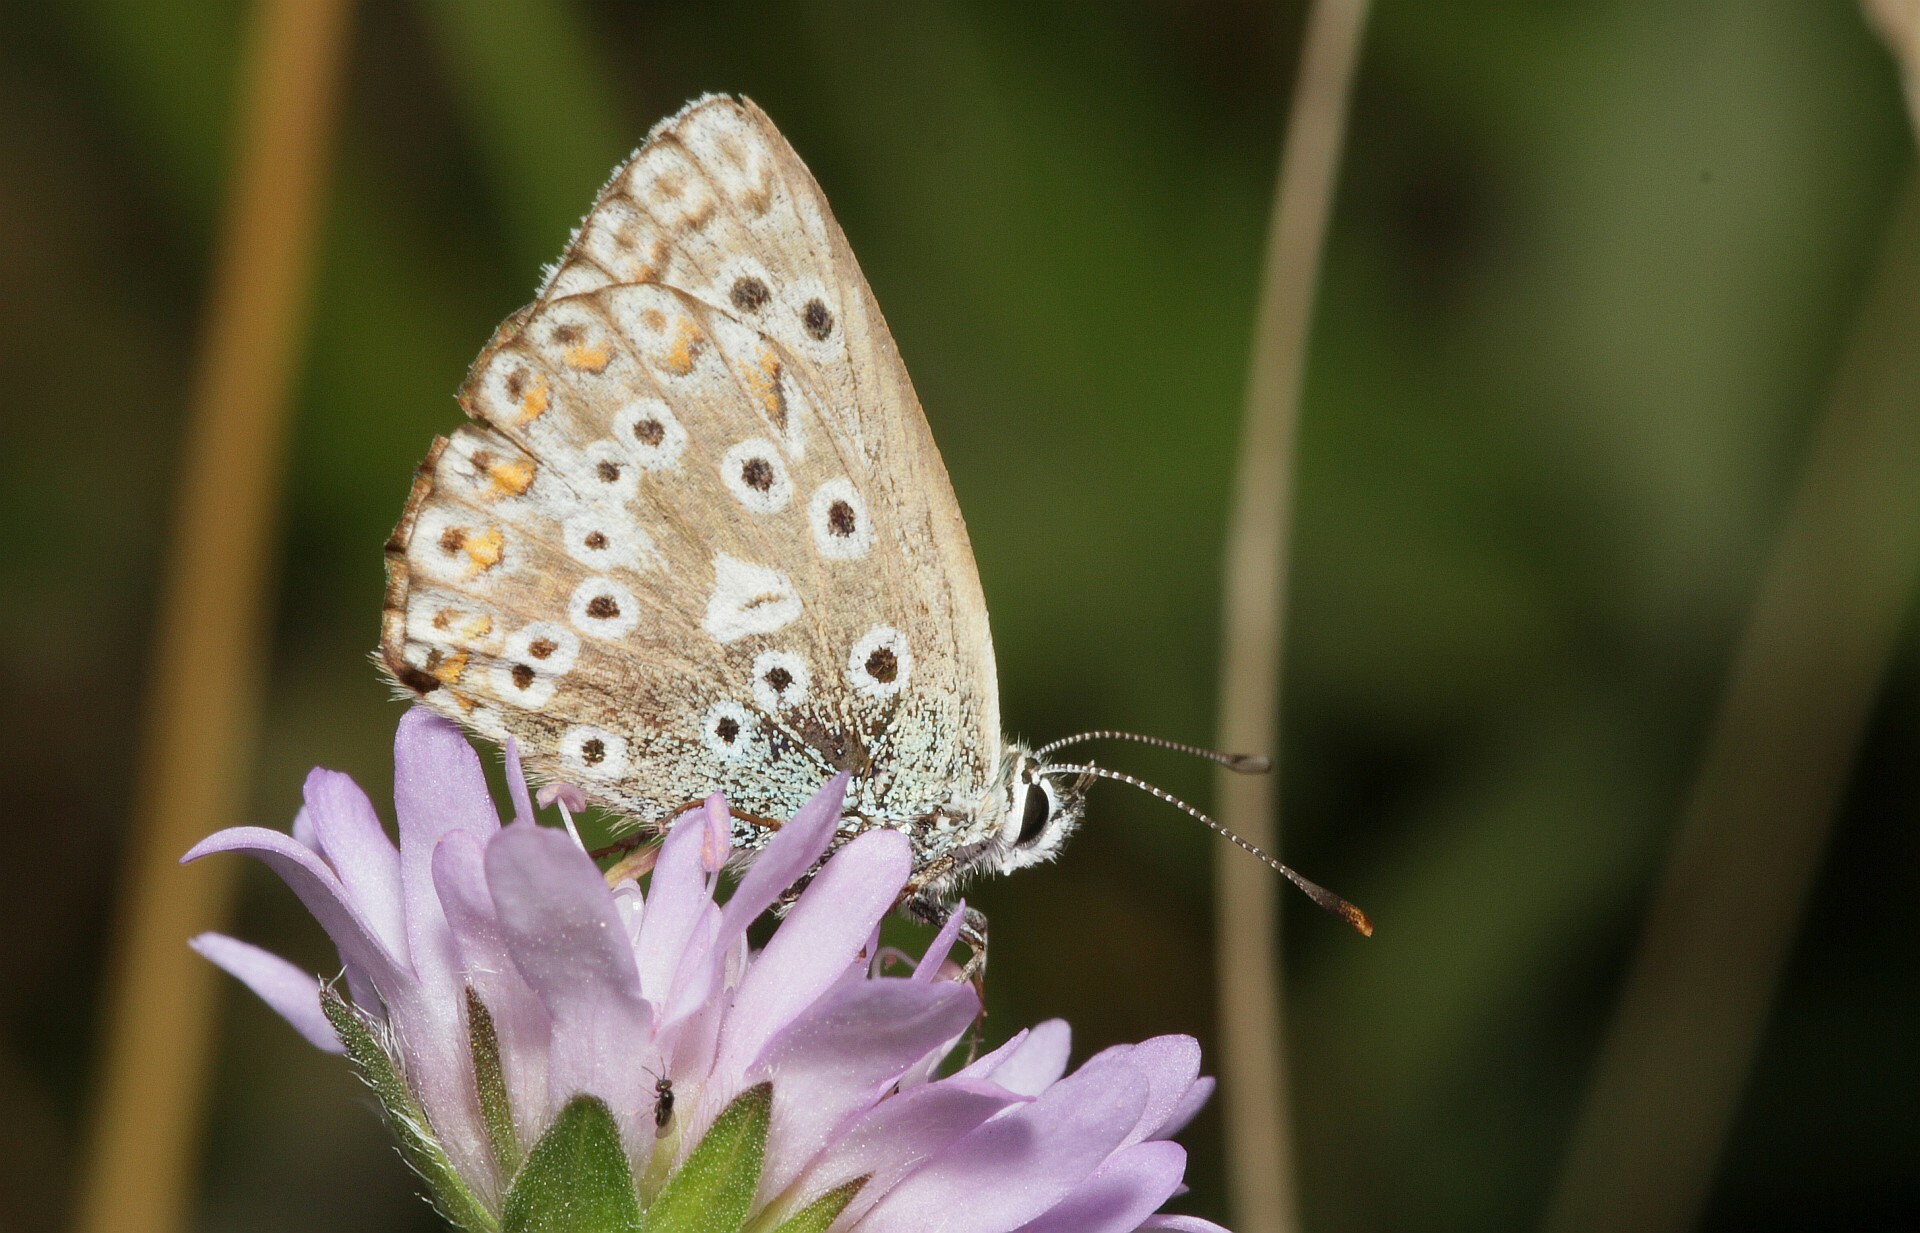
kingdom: Animalia
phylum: Arthropoda
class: Insecta
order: Lepidoptera
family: Lycaenidae
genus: Lysandra
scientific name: Lysandra coridon
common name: Chalkhill blue
